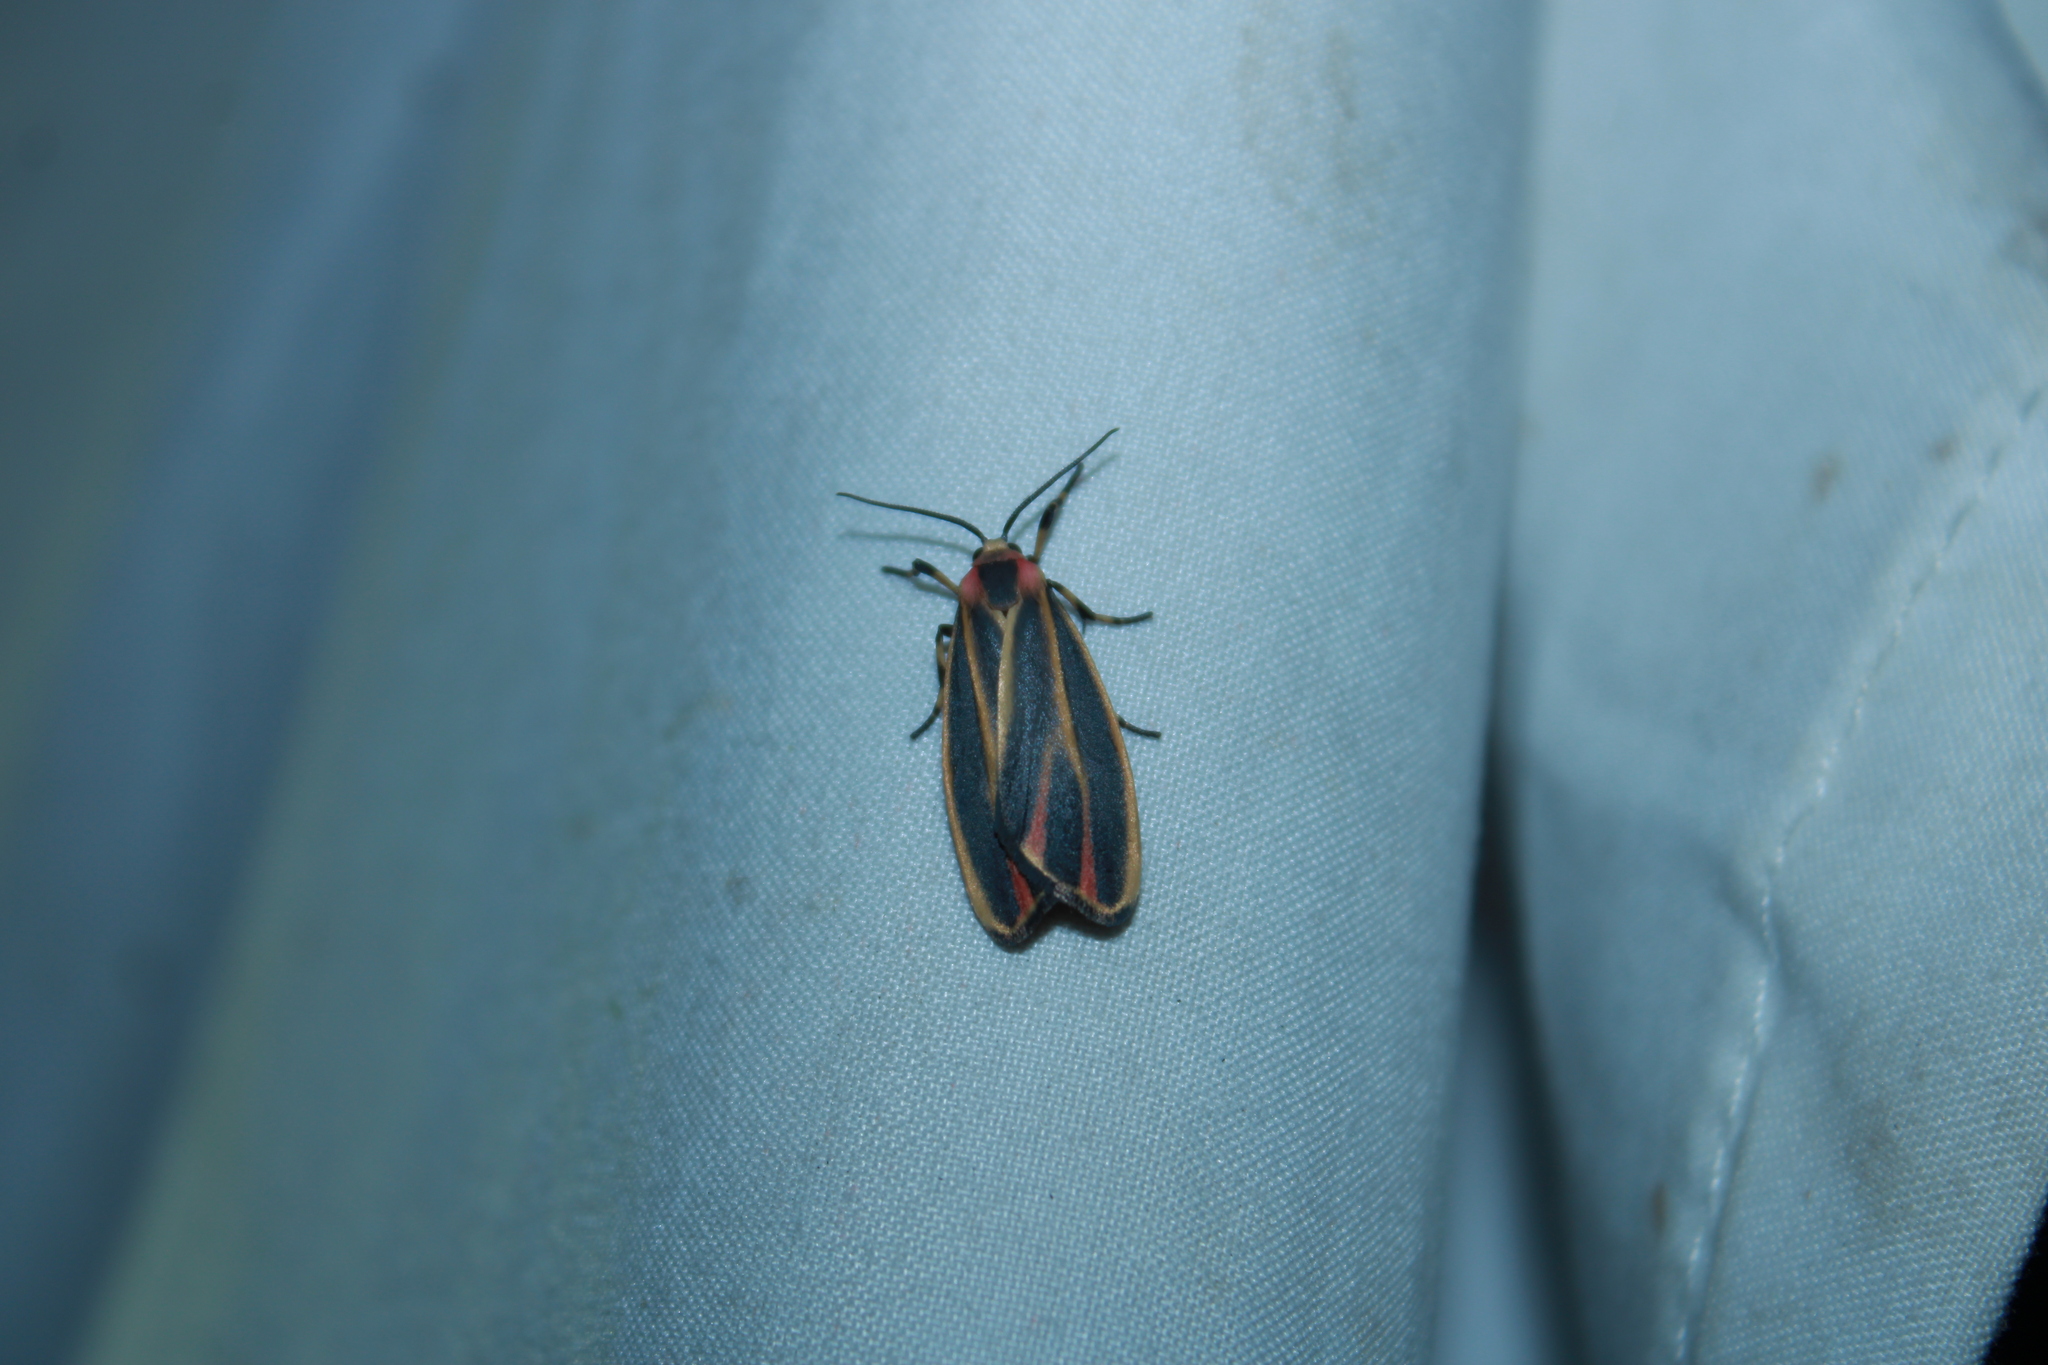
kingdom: Animalia
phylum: Arthropoda
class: Insecta
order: Lepidoptera
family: Erebidae
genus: Hypoprepia
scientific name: Hypoprepia fucosa
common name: Painted lichen moth
